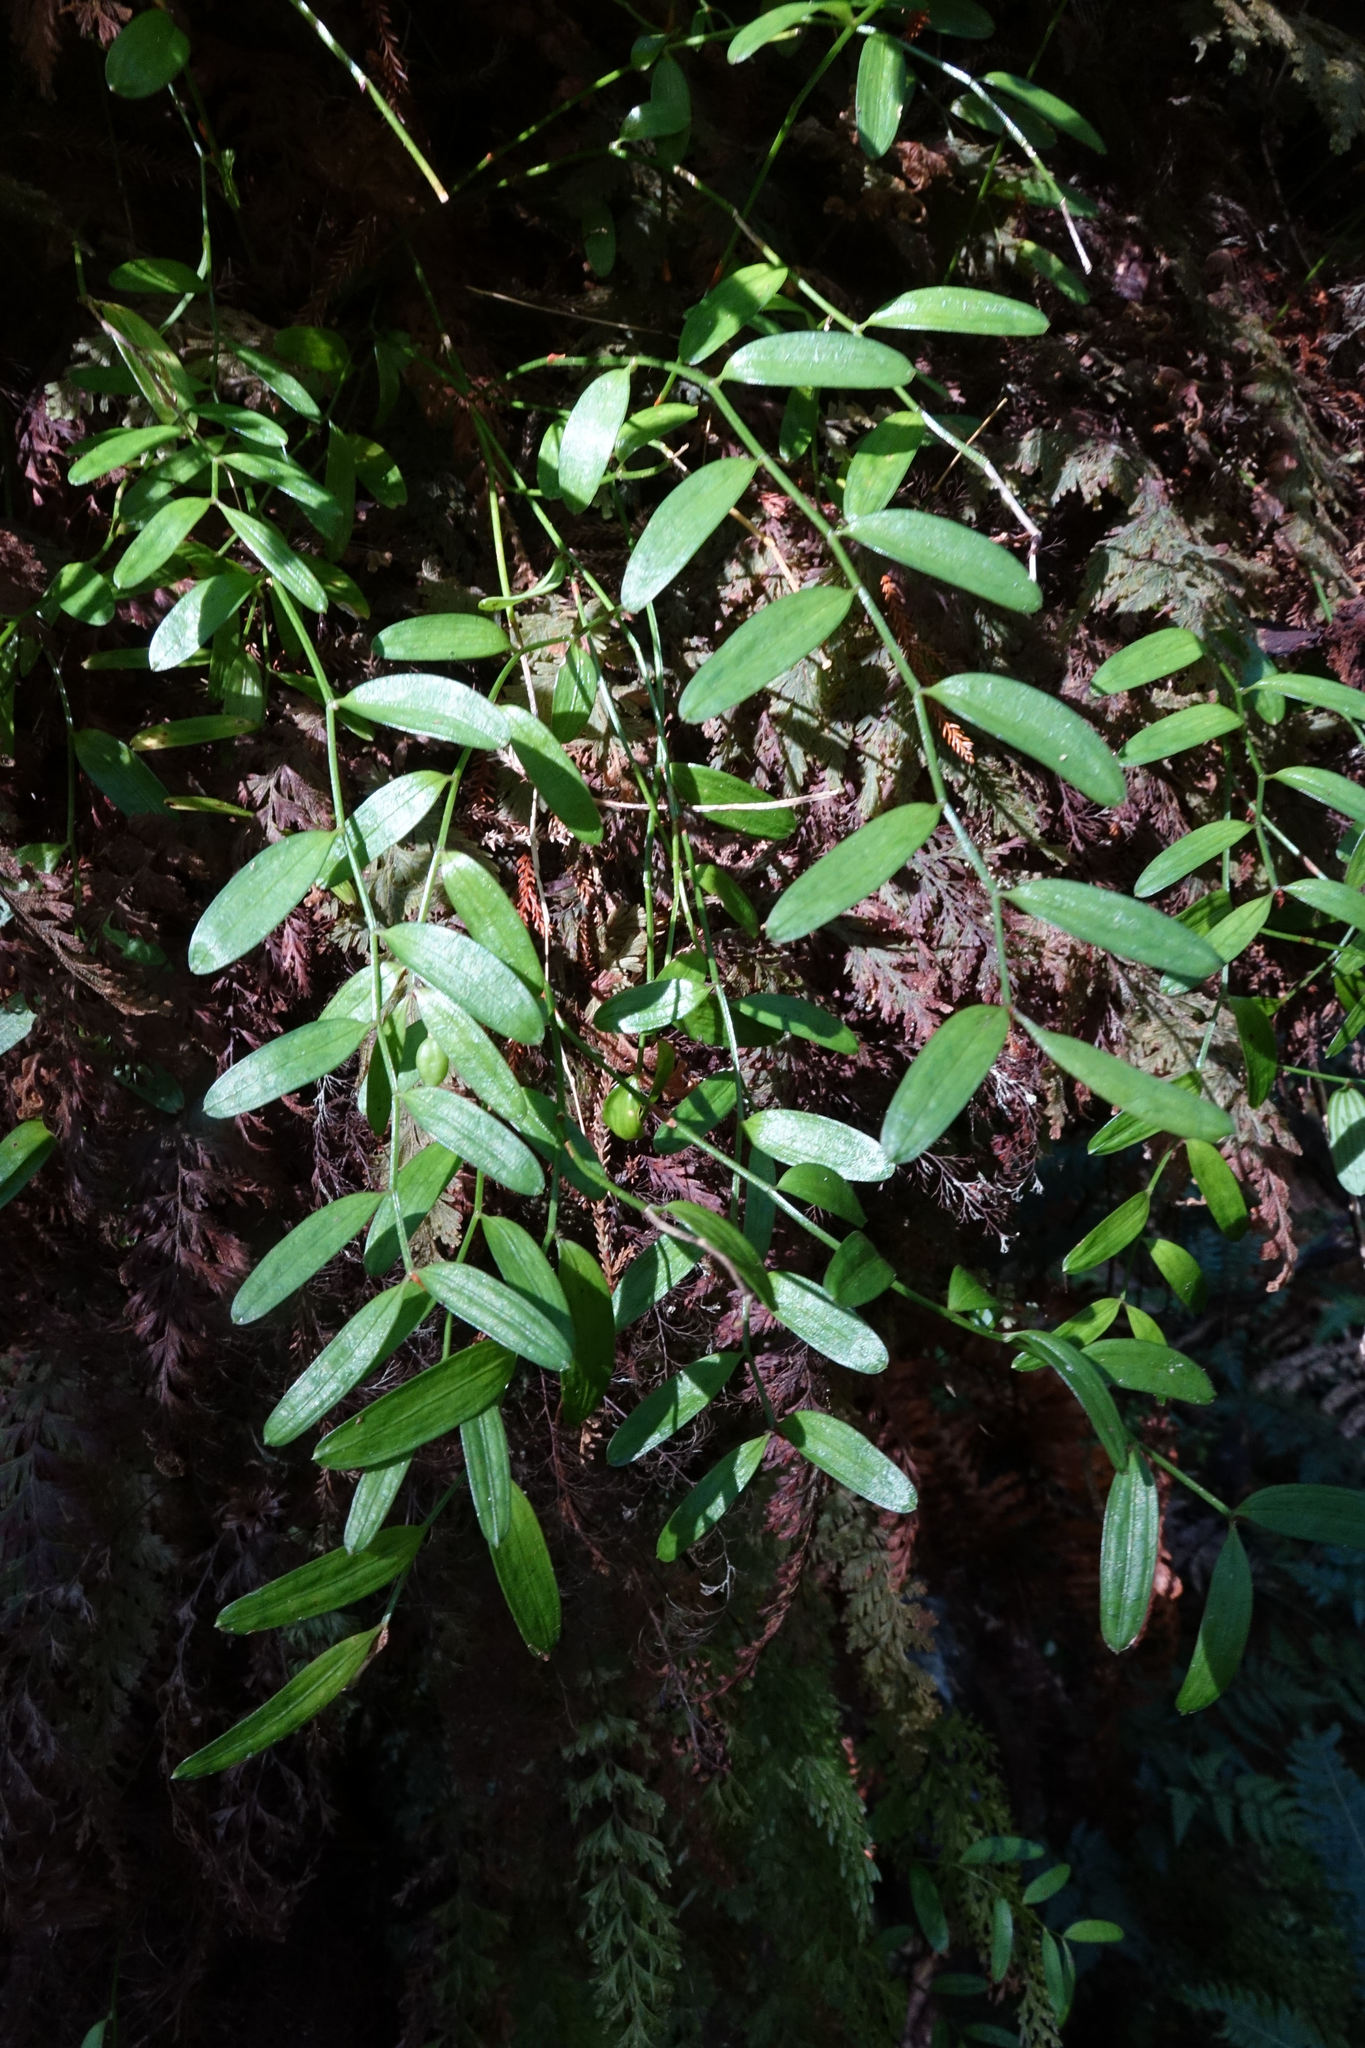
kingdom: Plantae
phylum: Tracheophyta
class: Liliopsida
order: Liliales
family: Alstroemeriaceae
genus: Luzuriaga
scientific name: Luzuriaga parviflora
